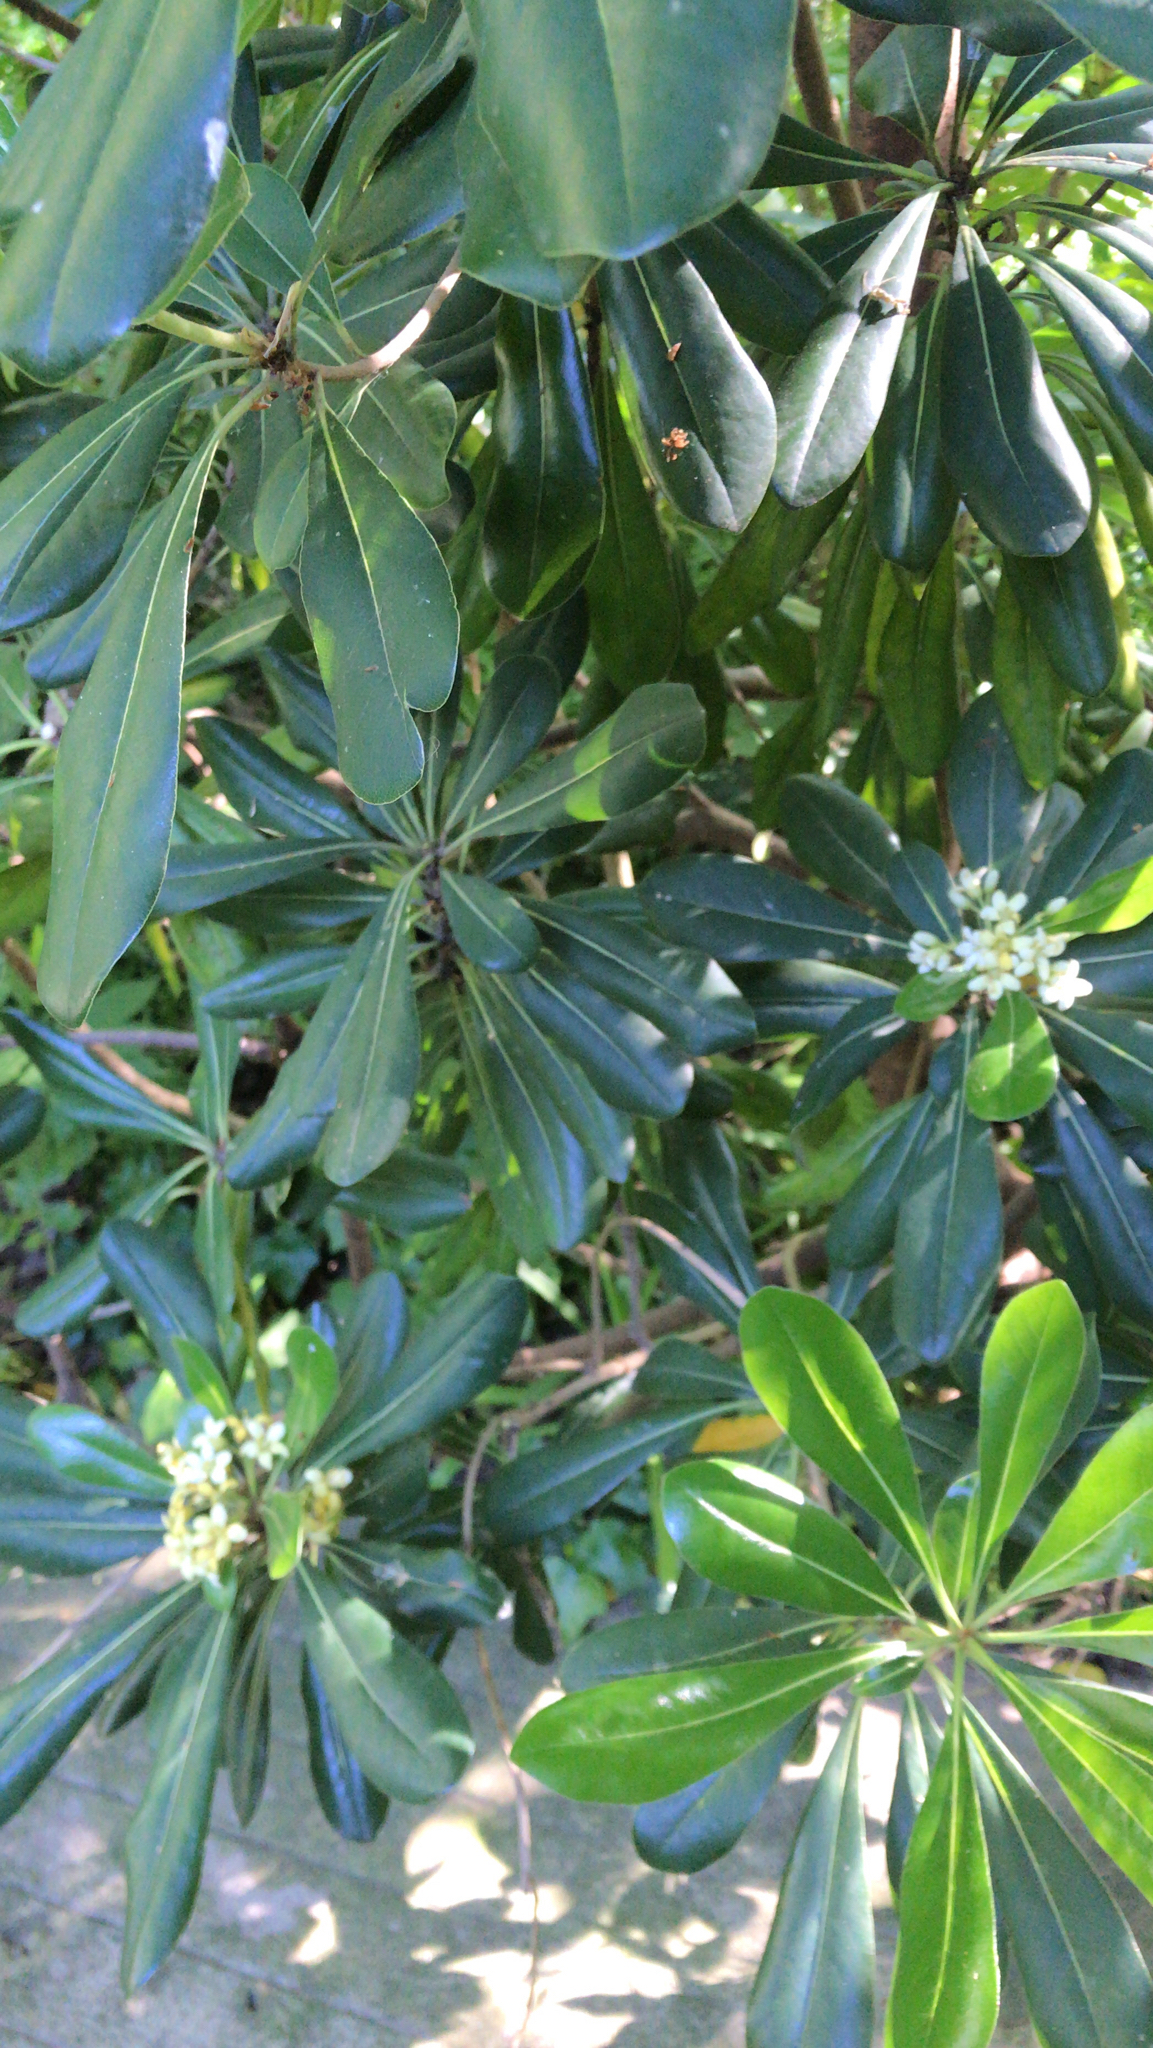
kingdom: Plantae
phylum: Tracheophyta
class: Magnoliopsida
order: Apiales
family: Pittosporaceae
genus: Pittosporum
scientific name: Pittosporum tobira
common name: Japanese cheesewood
